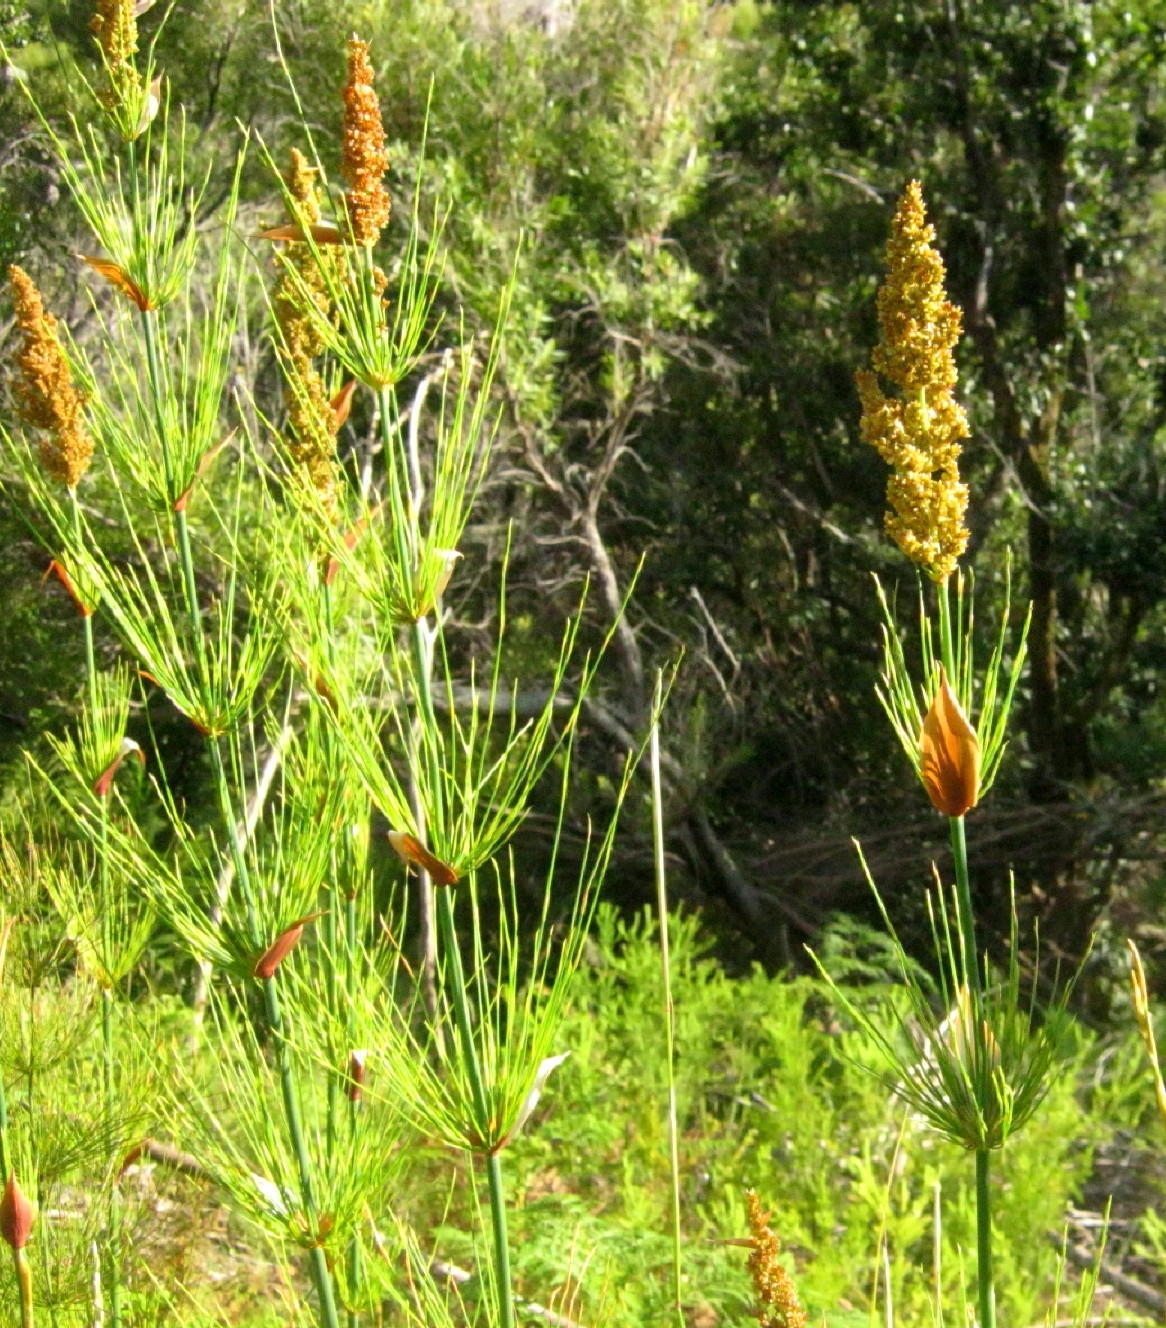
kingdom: Plantae
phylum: Tracheophyta
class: Liliopsida
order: Poales
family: Restionaceae
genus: Elegia
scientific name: Elegia capensis
